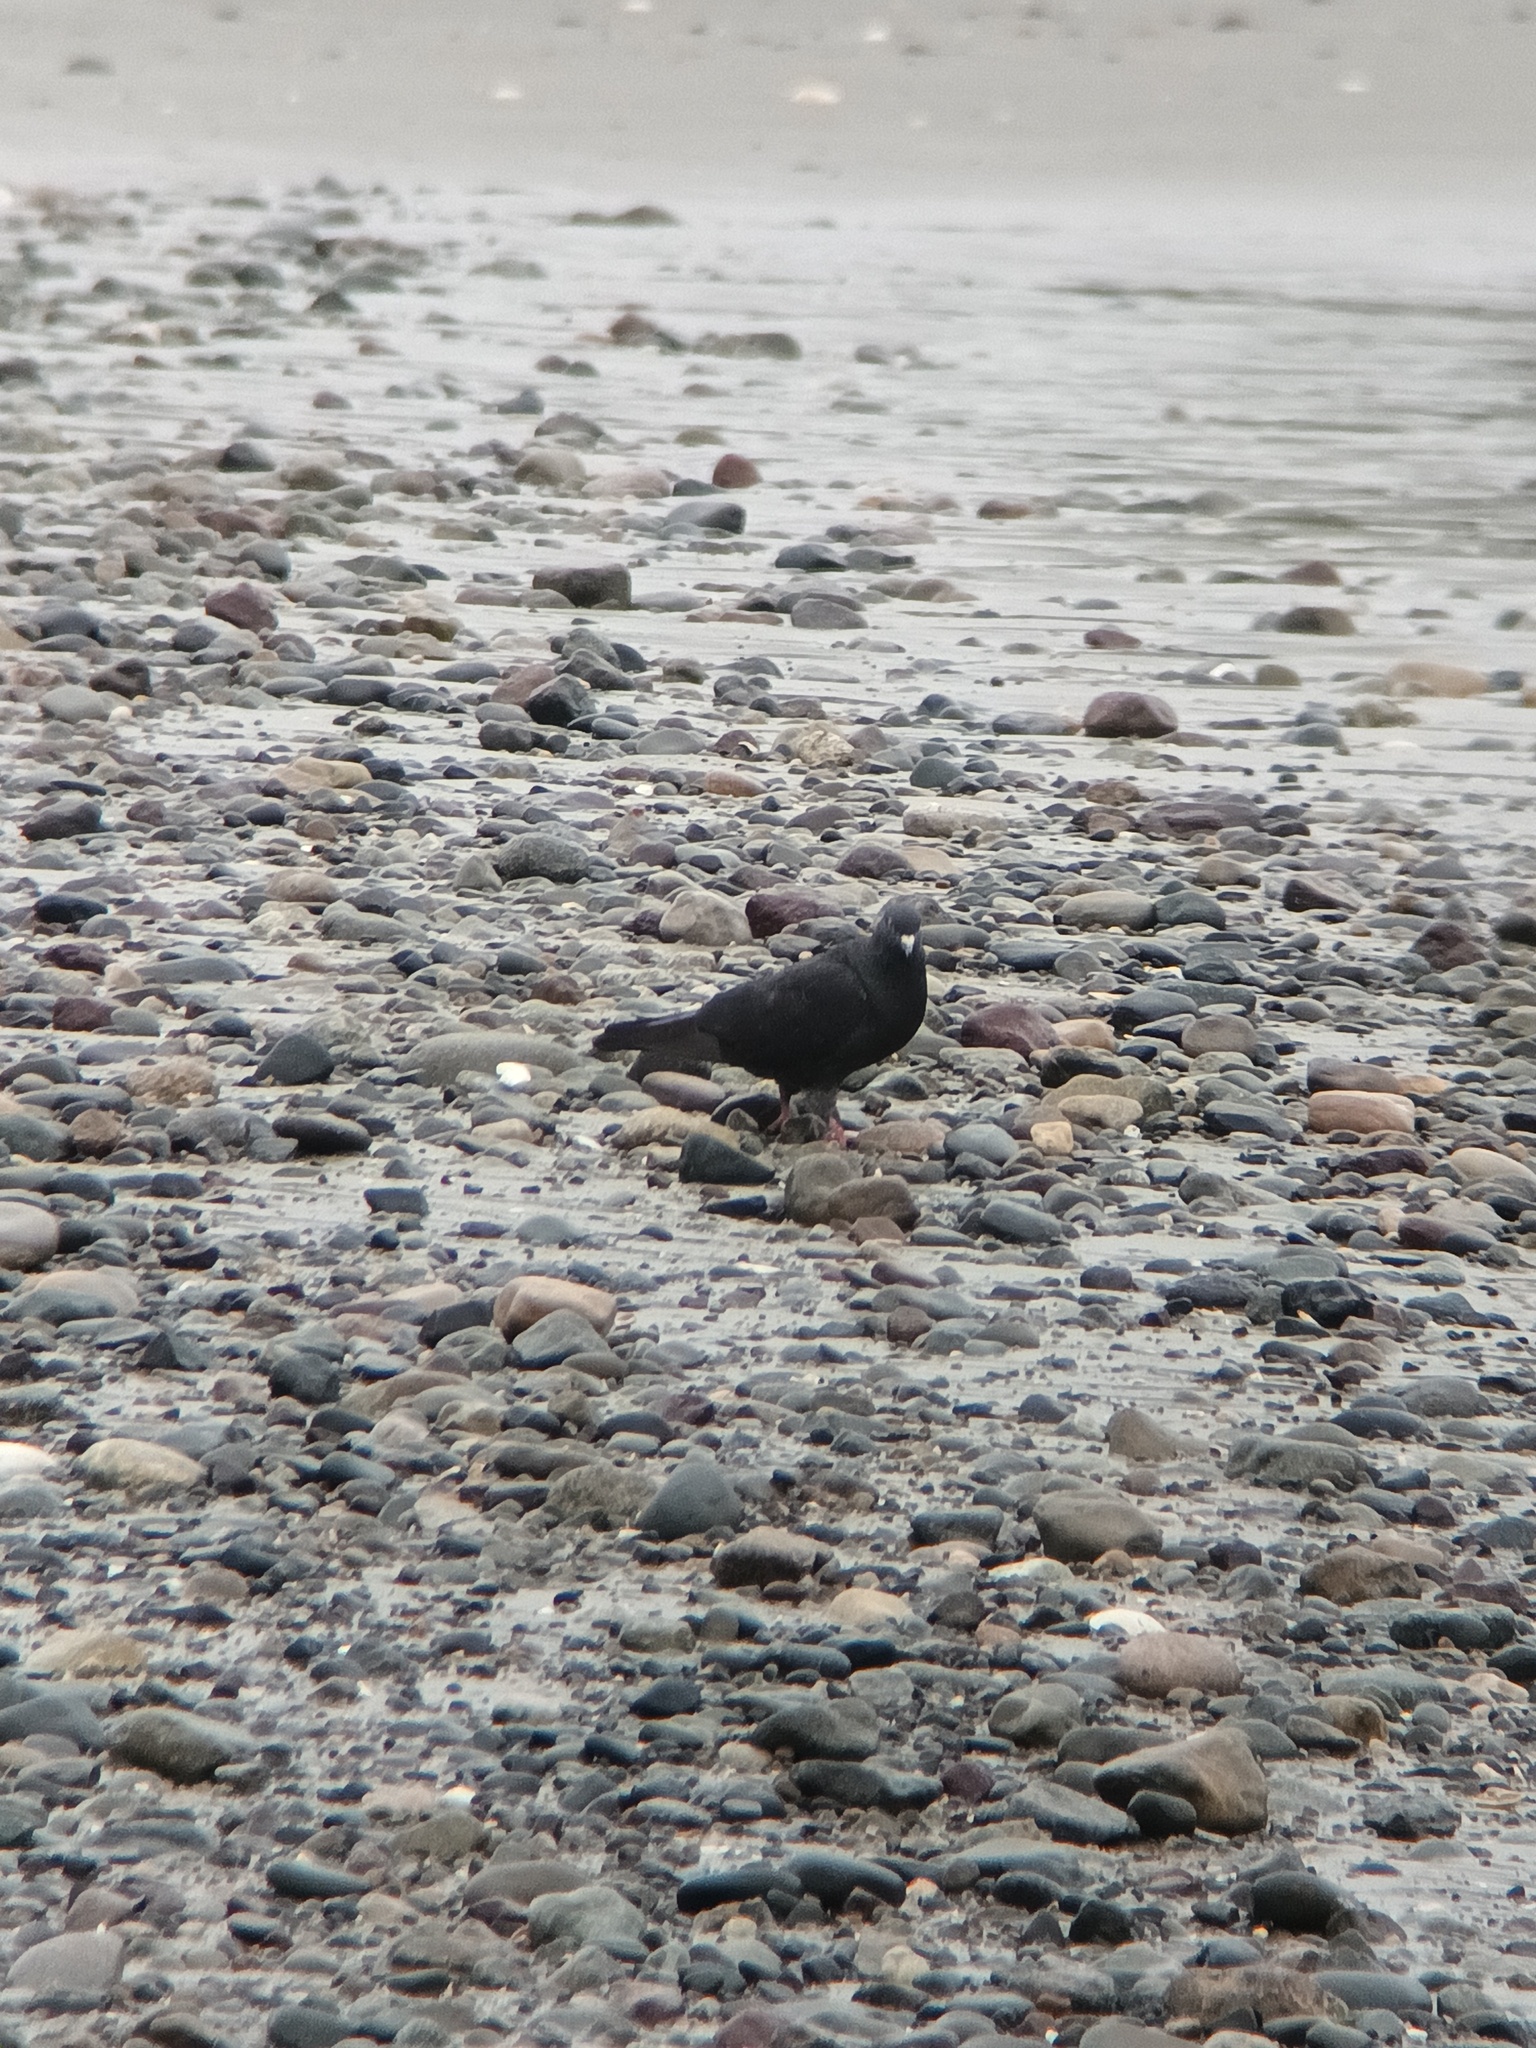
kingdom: Animalia
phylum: Chordata
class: Aves
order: Columbiformes
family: Columbidae
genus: Columba
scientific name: Columba livia
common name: Rock pigeon
